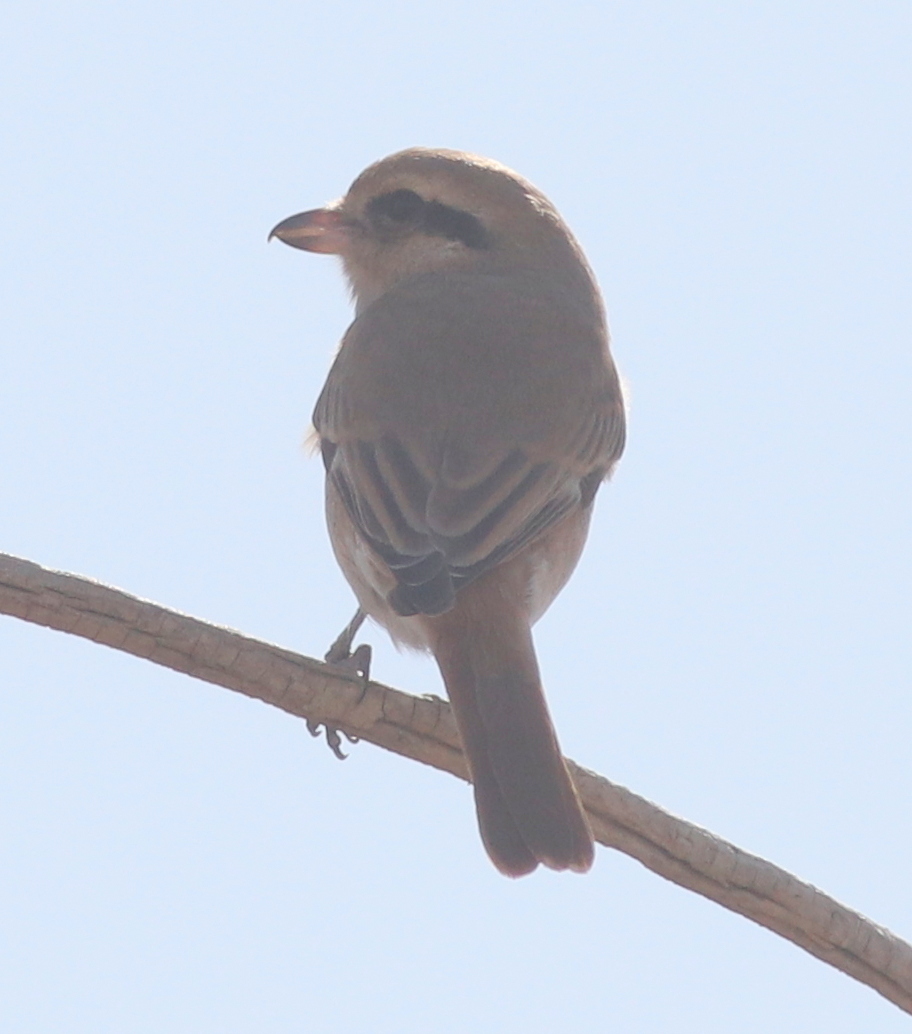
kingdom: Animalia
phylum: Chordata
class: Aves
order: Passeriformes
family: Laniidae
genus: Lanius
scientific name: Lanius isabellinus
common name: Isabelline shrike
